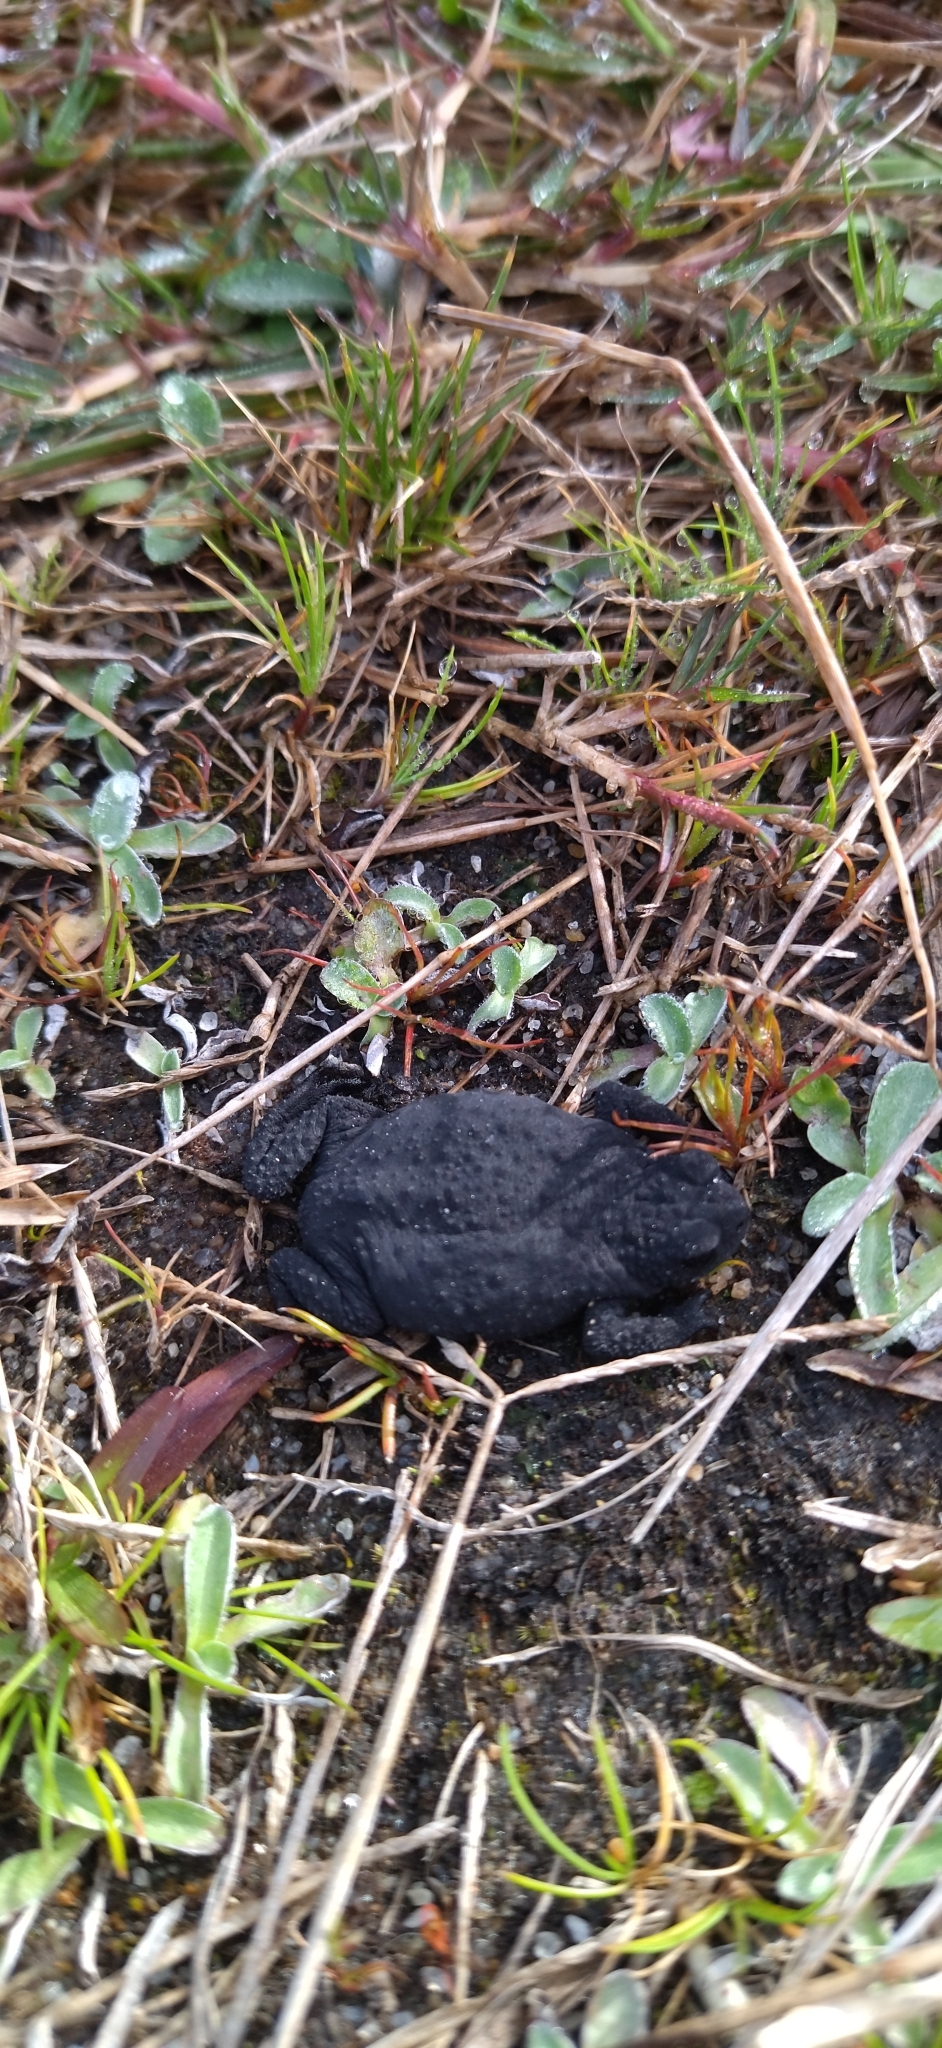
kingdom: Animalia
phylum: Chordata
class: Amphibia
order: Anura
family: Bufonidae
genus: Melanophryniscus
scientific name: Melanophryniscus montevidensis
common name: Montevideo redbelly toad
